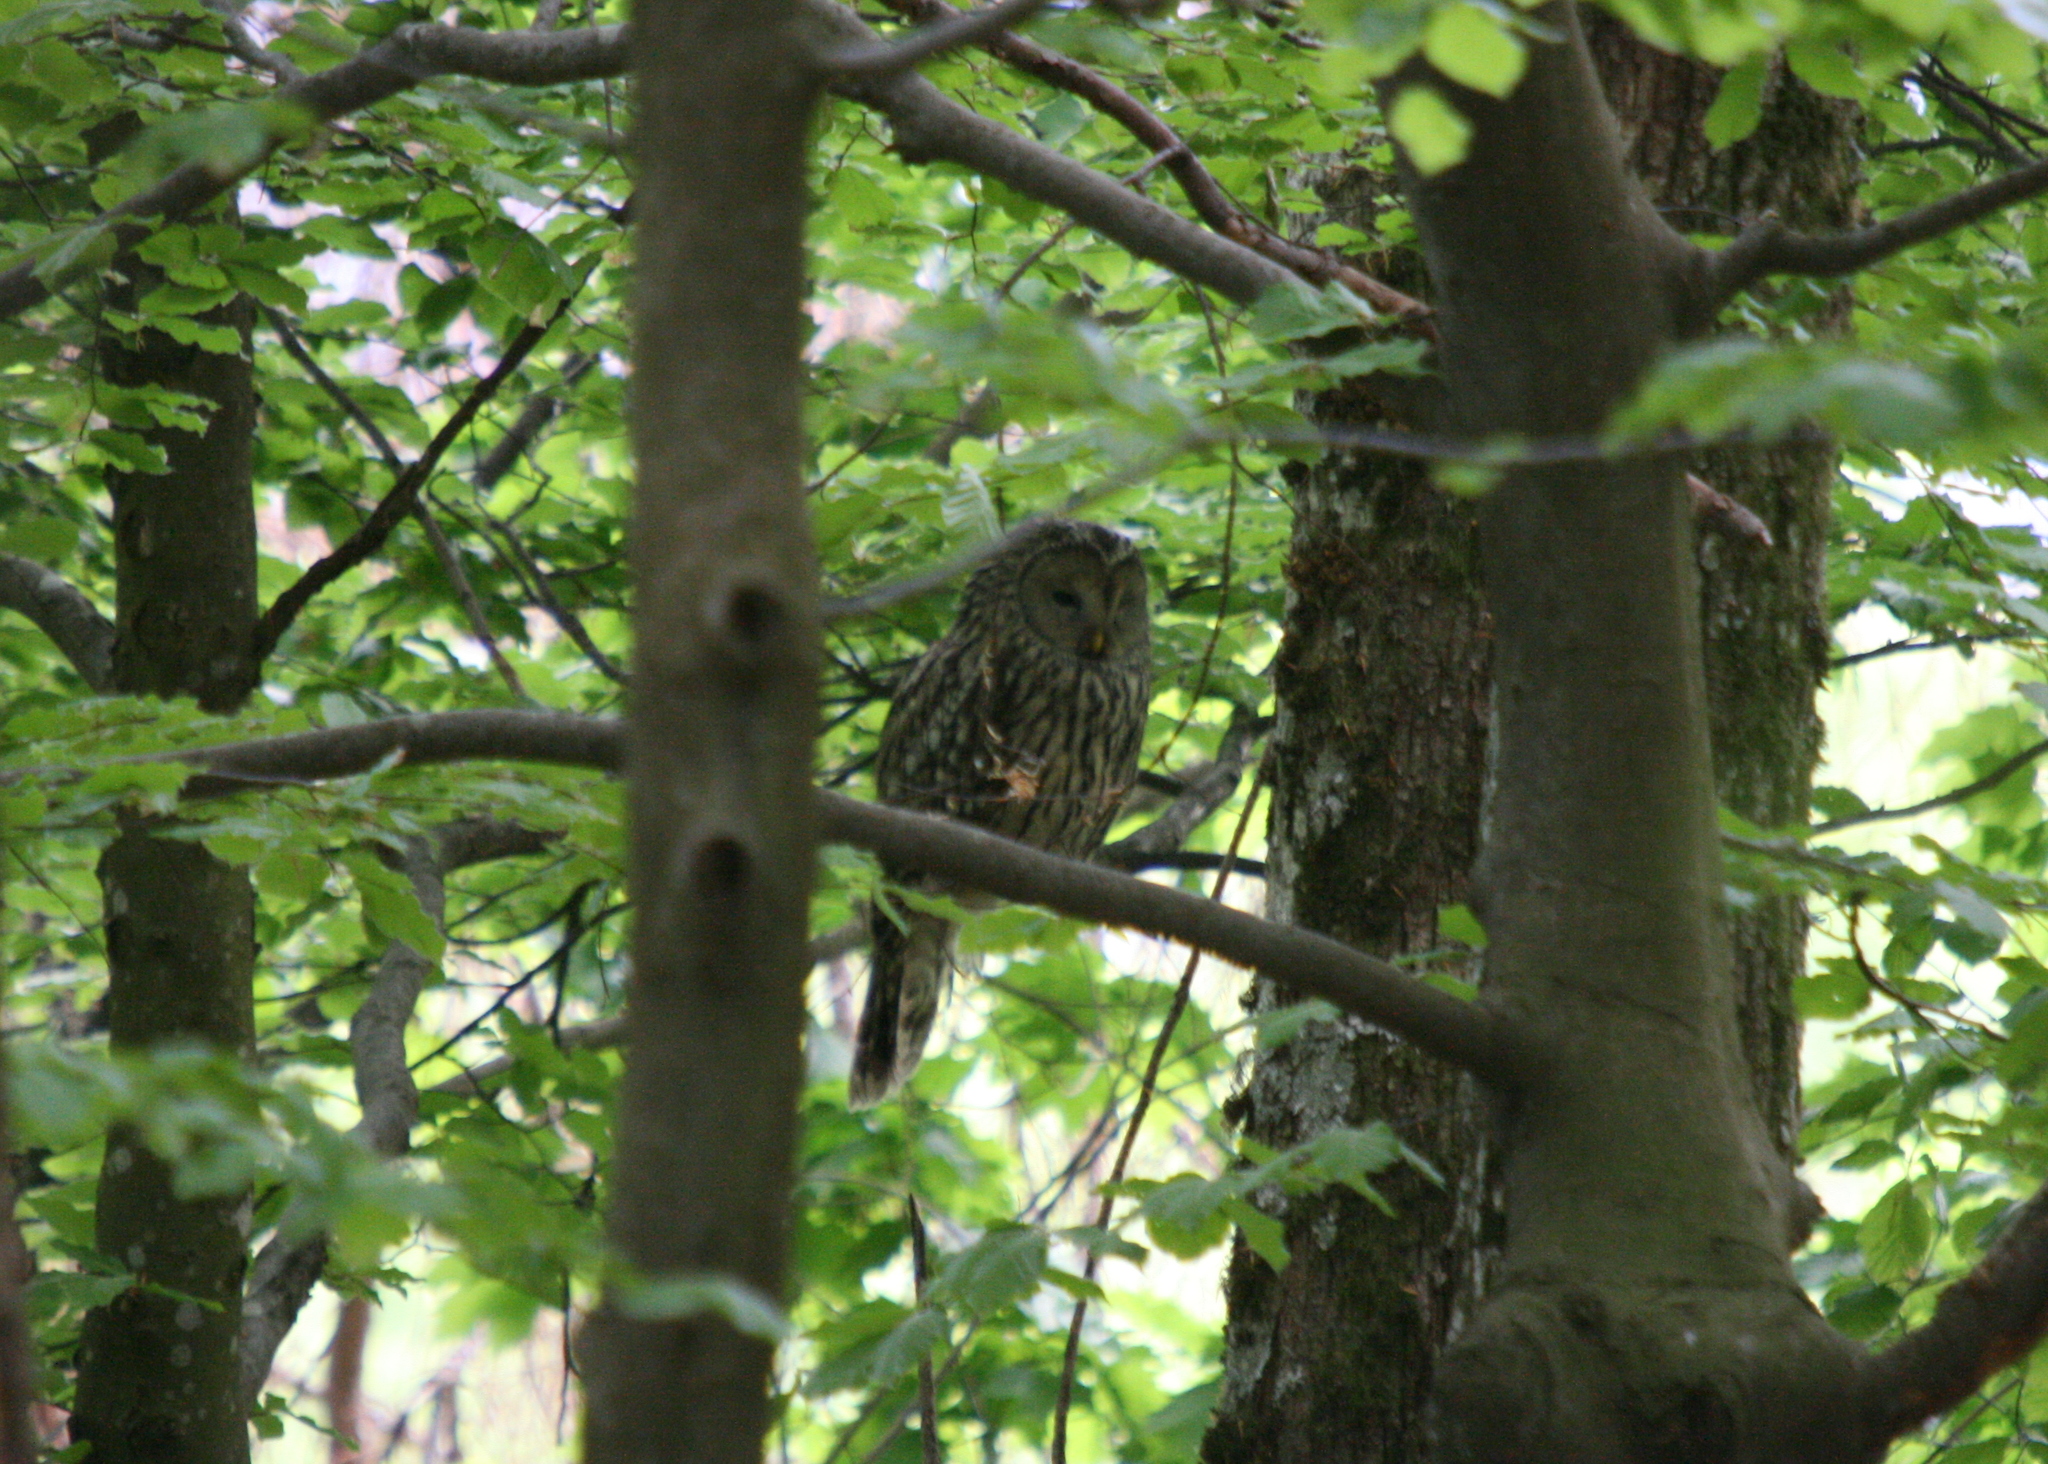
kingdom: Animalia
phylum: Chordata
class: Aves
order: Strigiformes
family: Strigidae
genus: Strix
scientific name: Strix uralensis
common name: Ural owl
